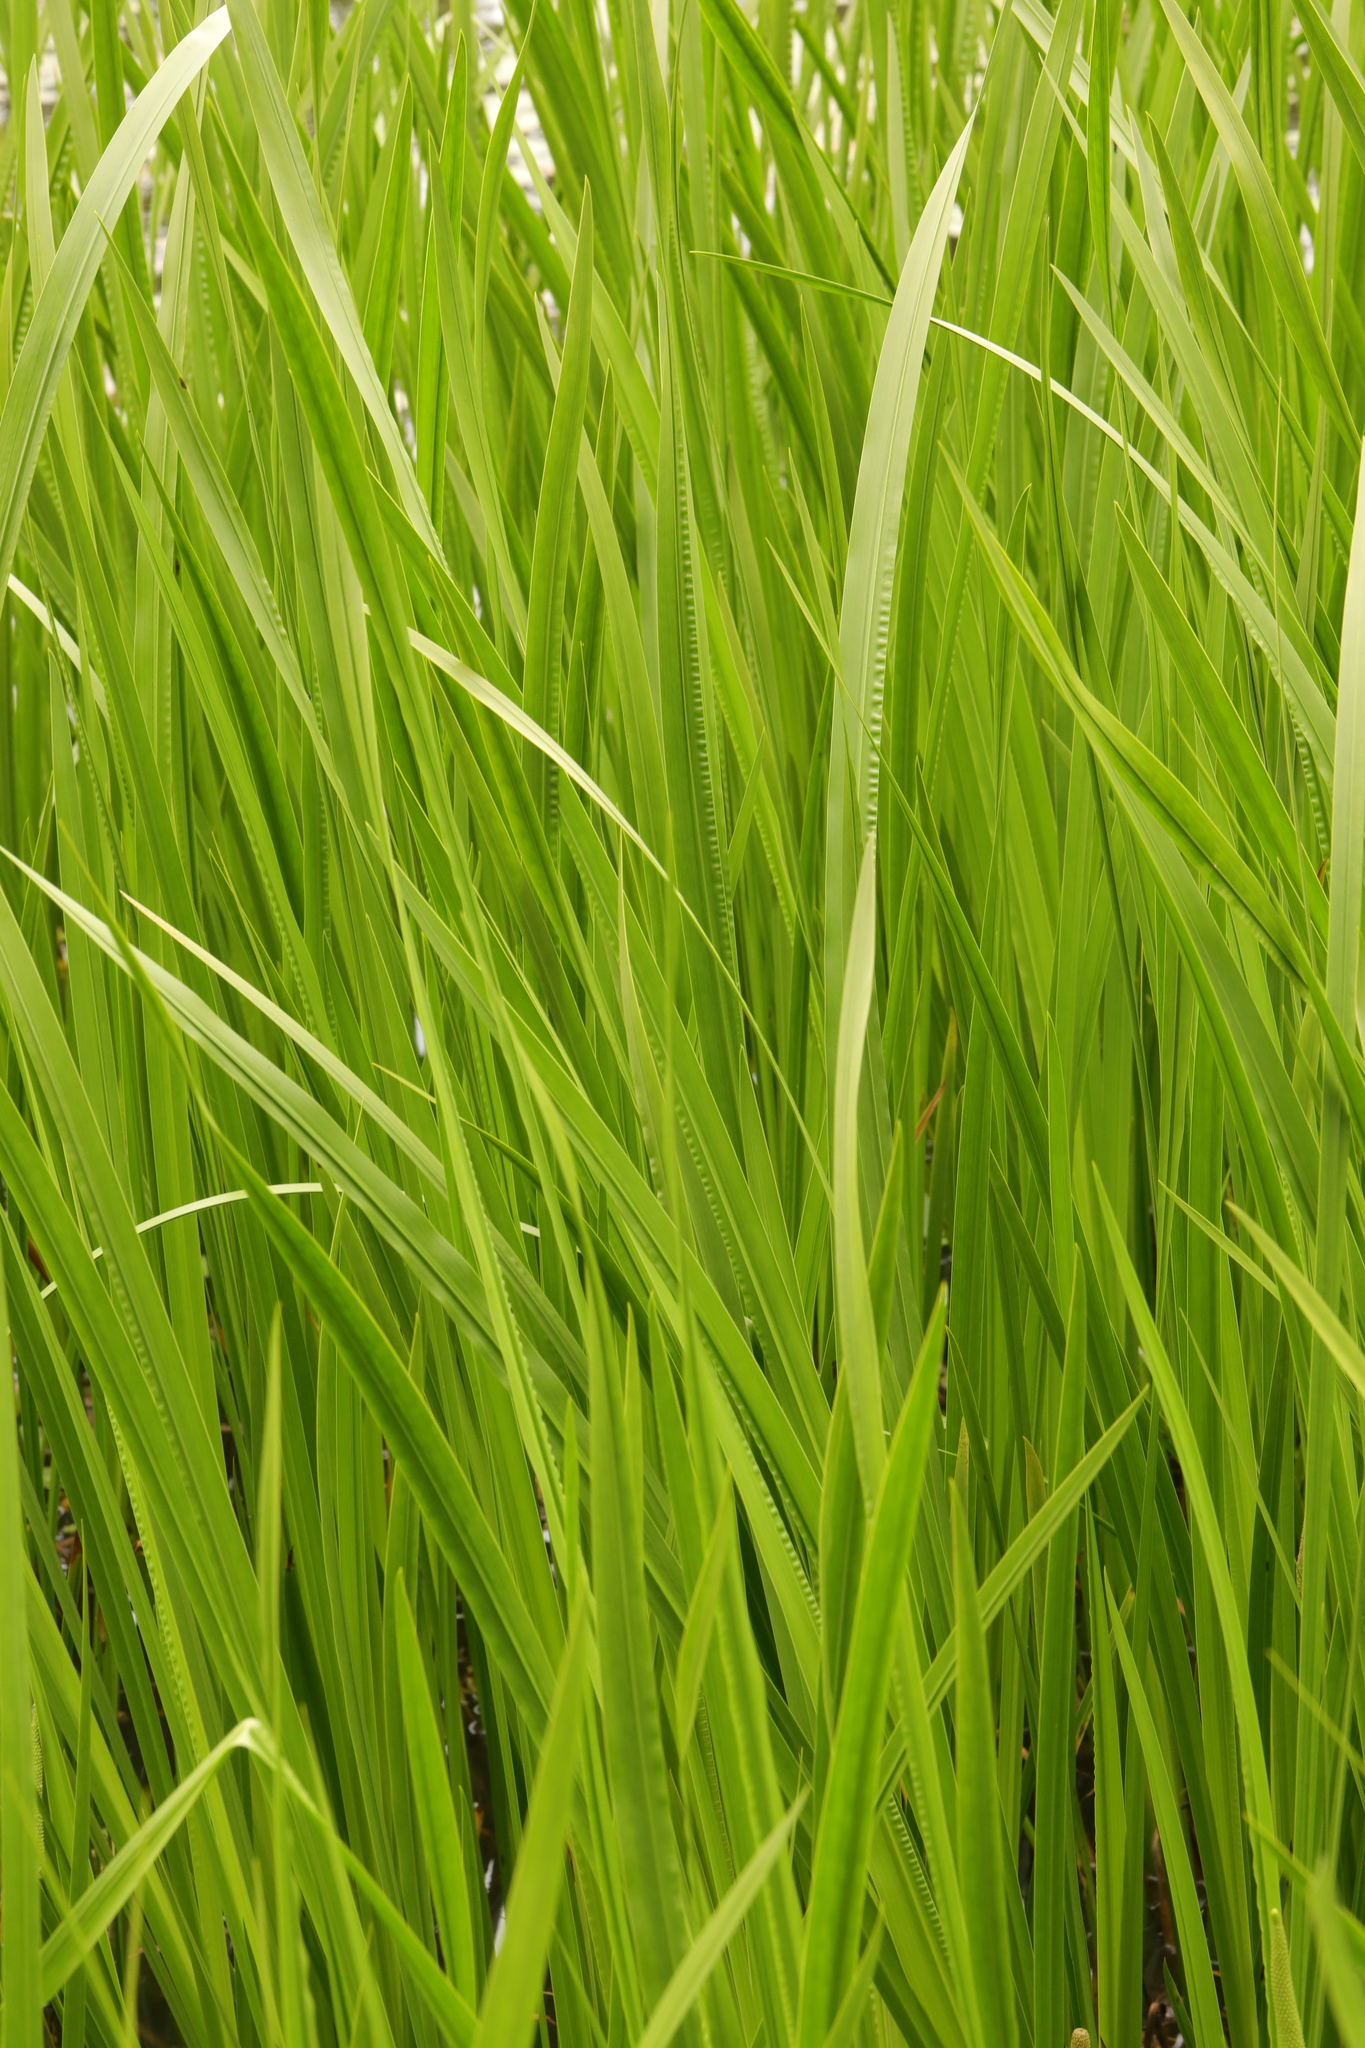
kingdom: Plantae
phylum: Tracheophyta
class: Liliopsida
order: Acorales
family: Acoraceae
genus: Acorus
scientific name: Acorus calamus
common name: Sweet-flag
